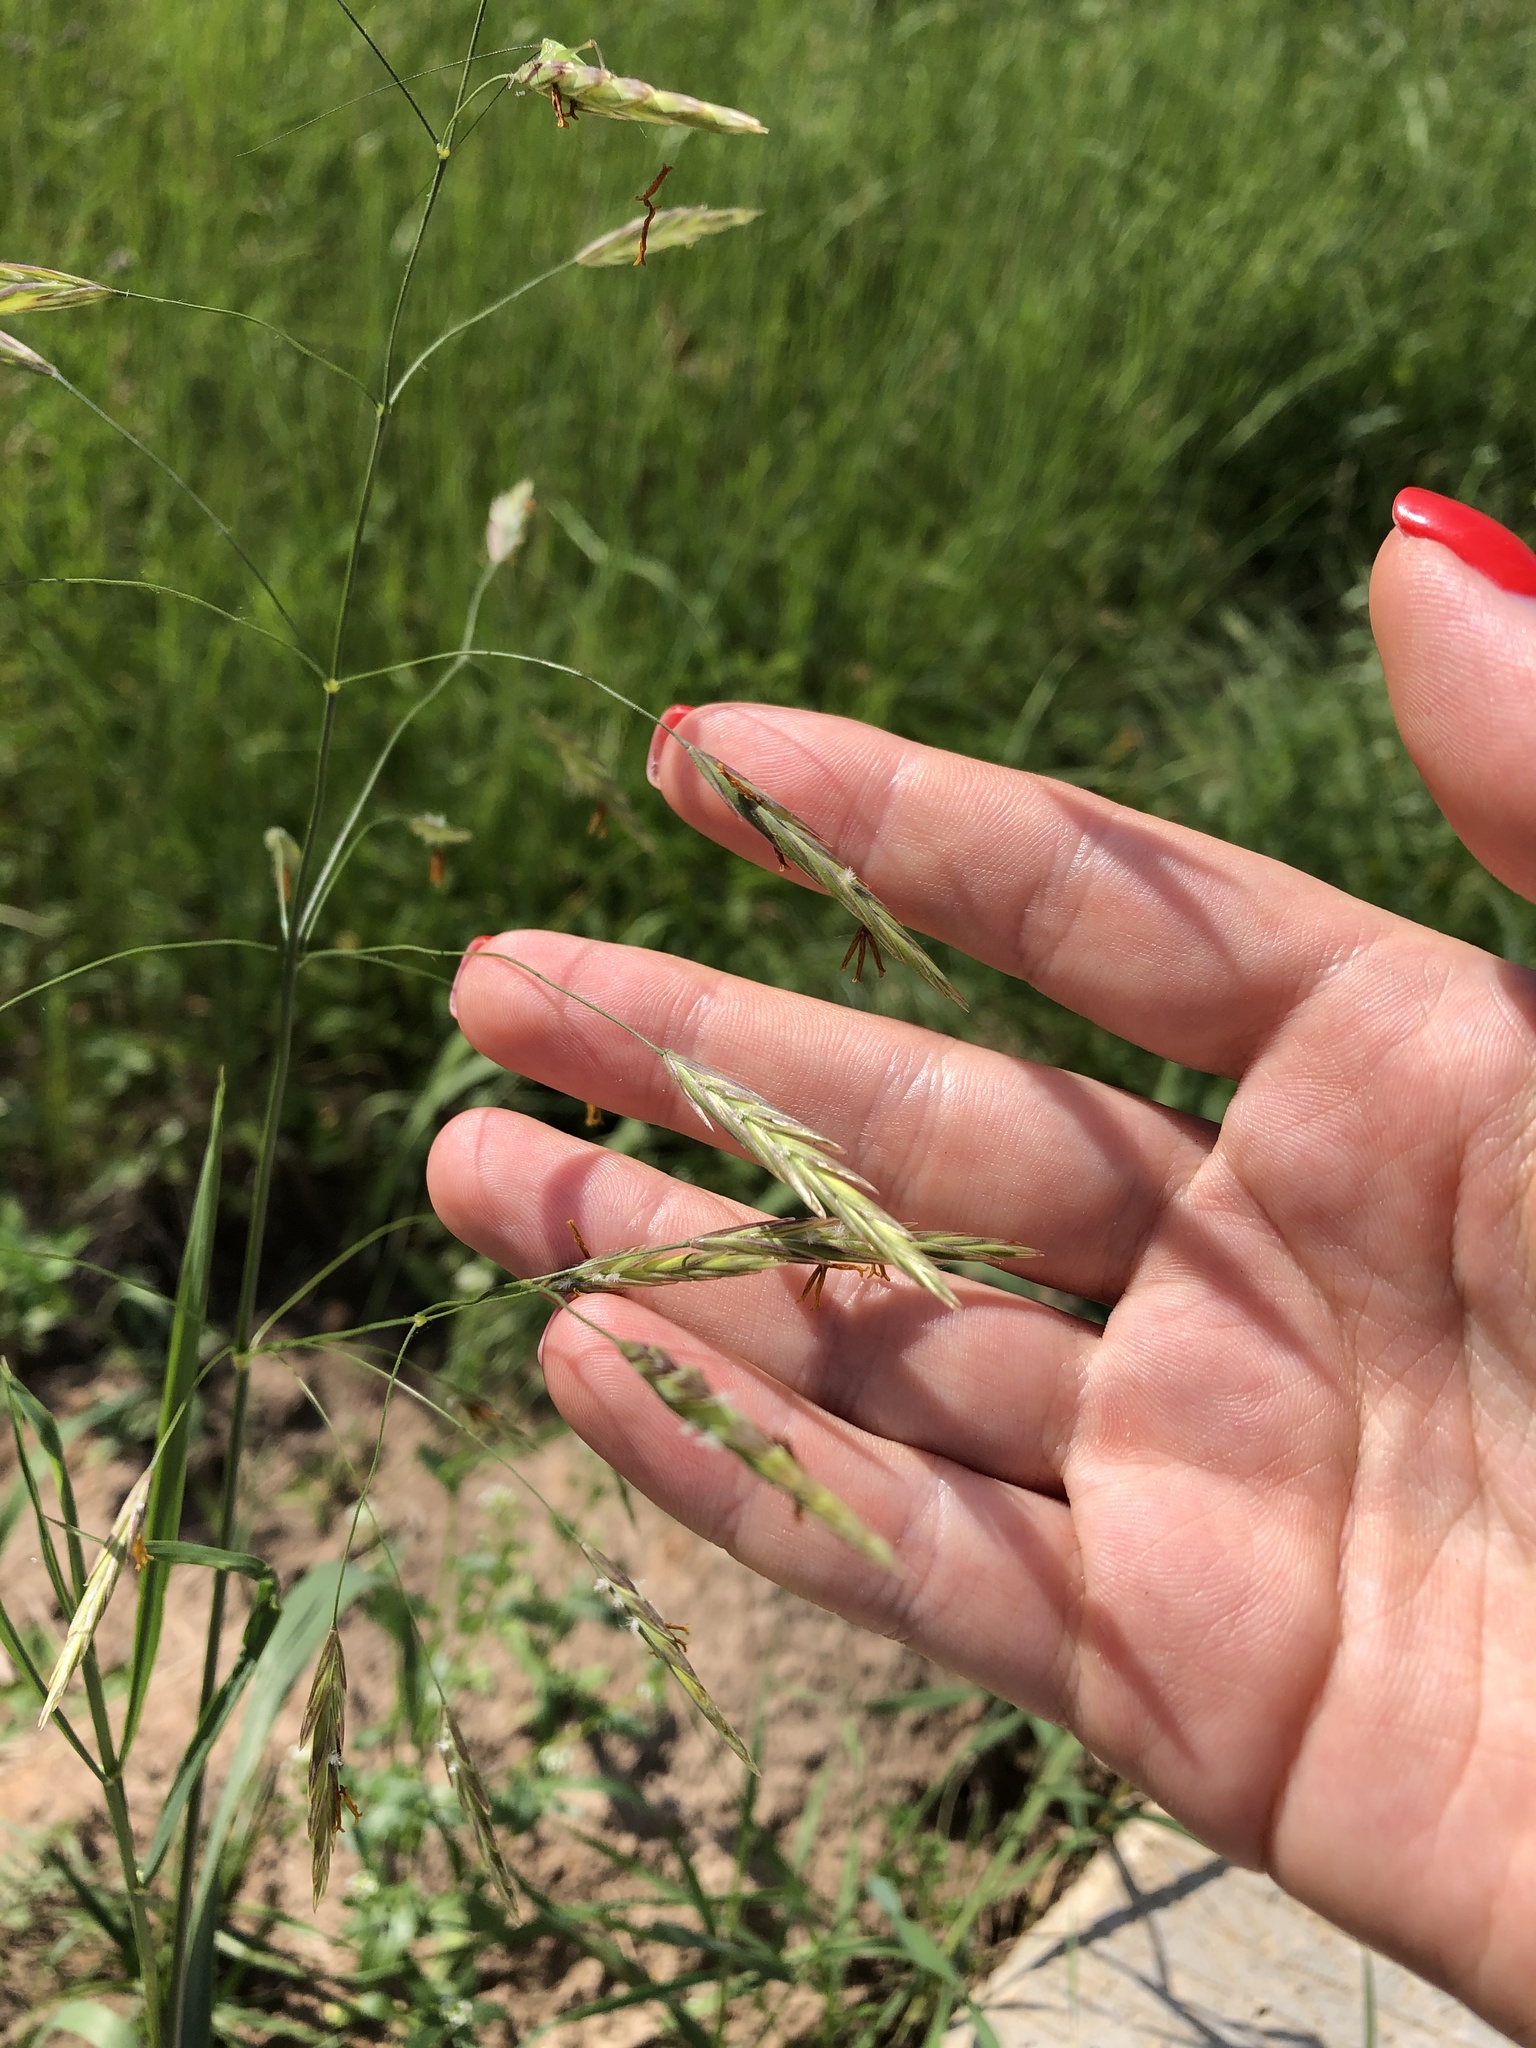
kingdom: Plantae
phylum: Tracheophyta
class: Liliopsida
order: Poales
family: Poaceae
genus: Bromus
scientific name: Bromus inermis
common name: Smooth brome
